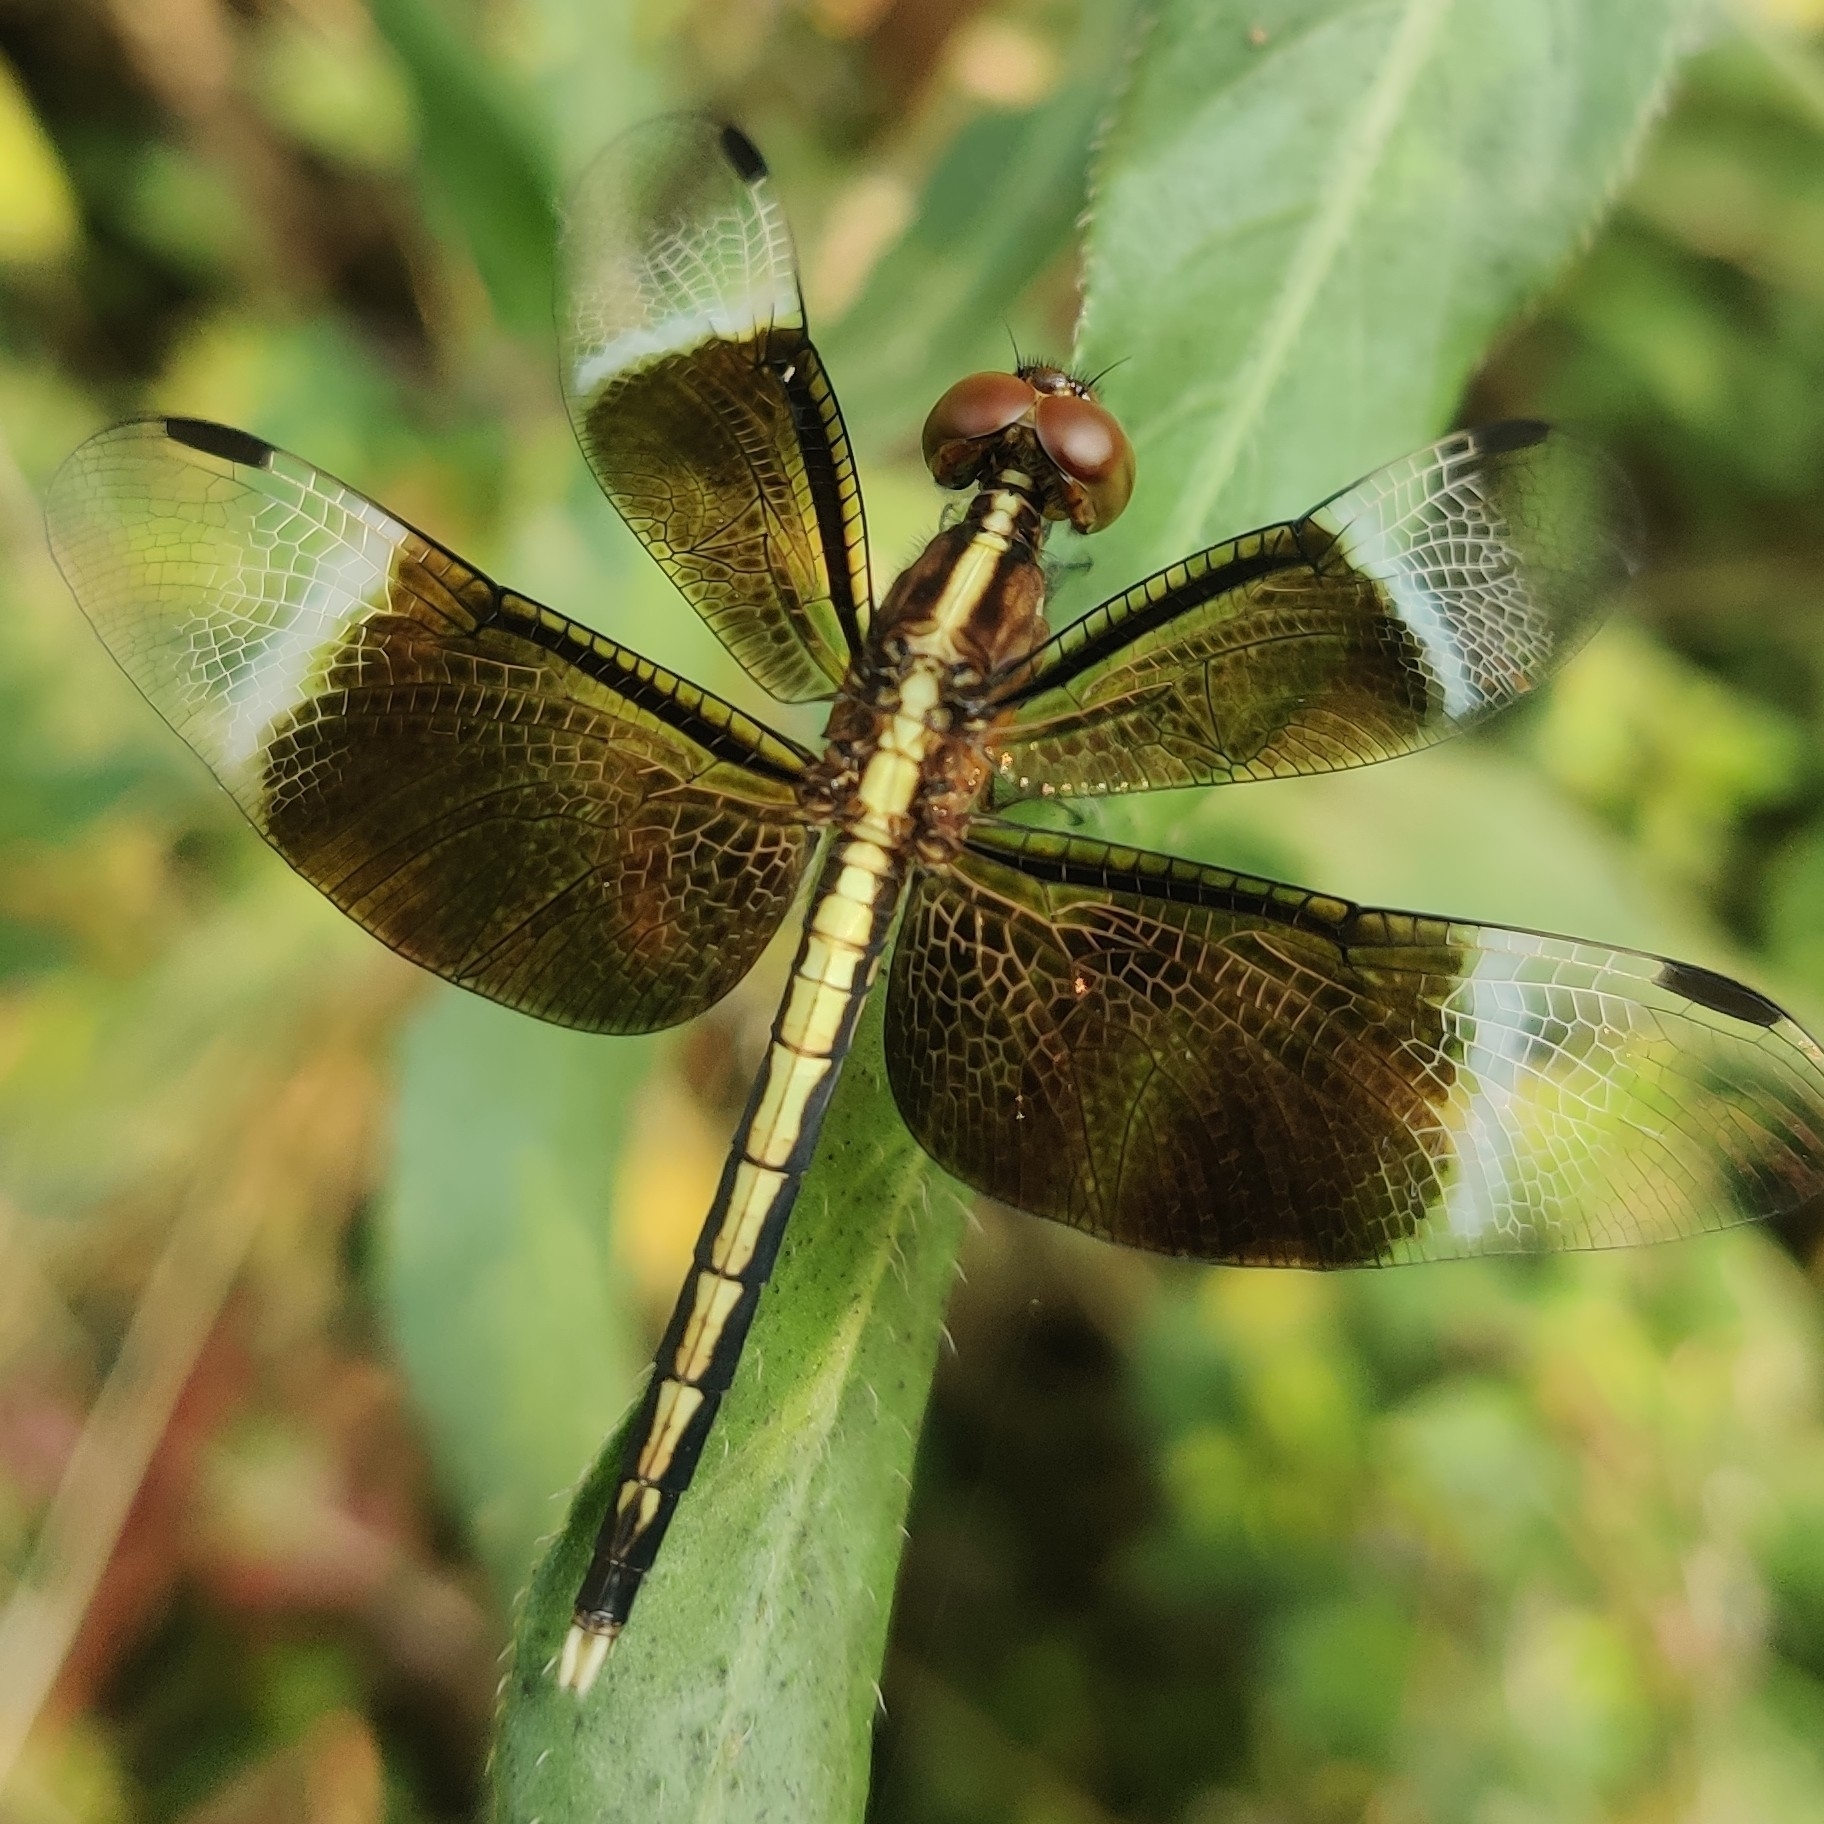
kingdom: Animalia
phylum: Arthropoda
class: Insecta
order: Odonata
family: Libellulidae
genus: Neurothemis
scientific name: Neurothemis tullia
